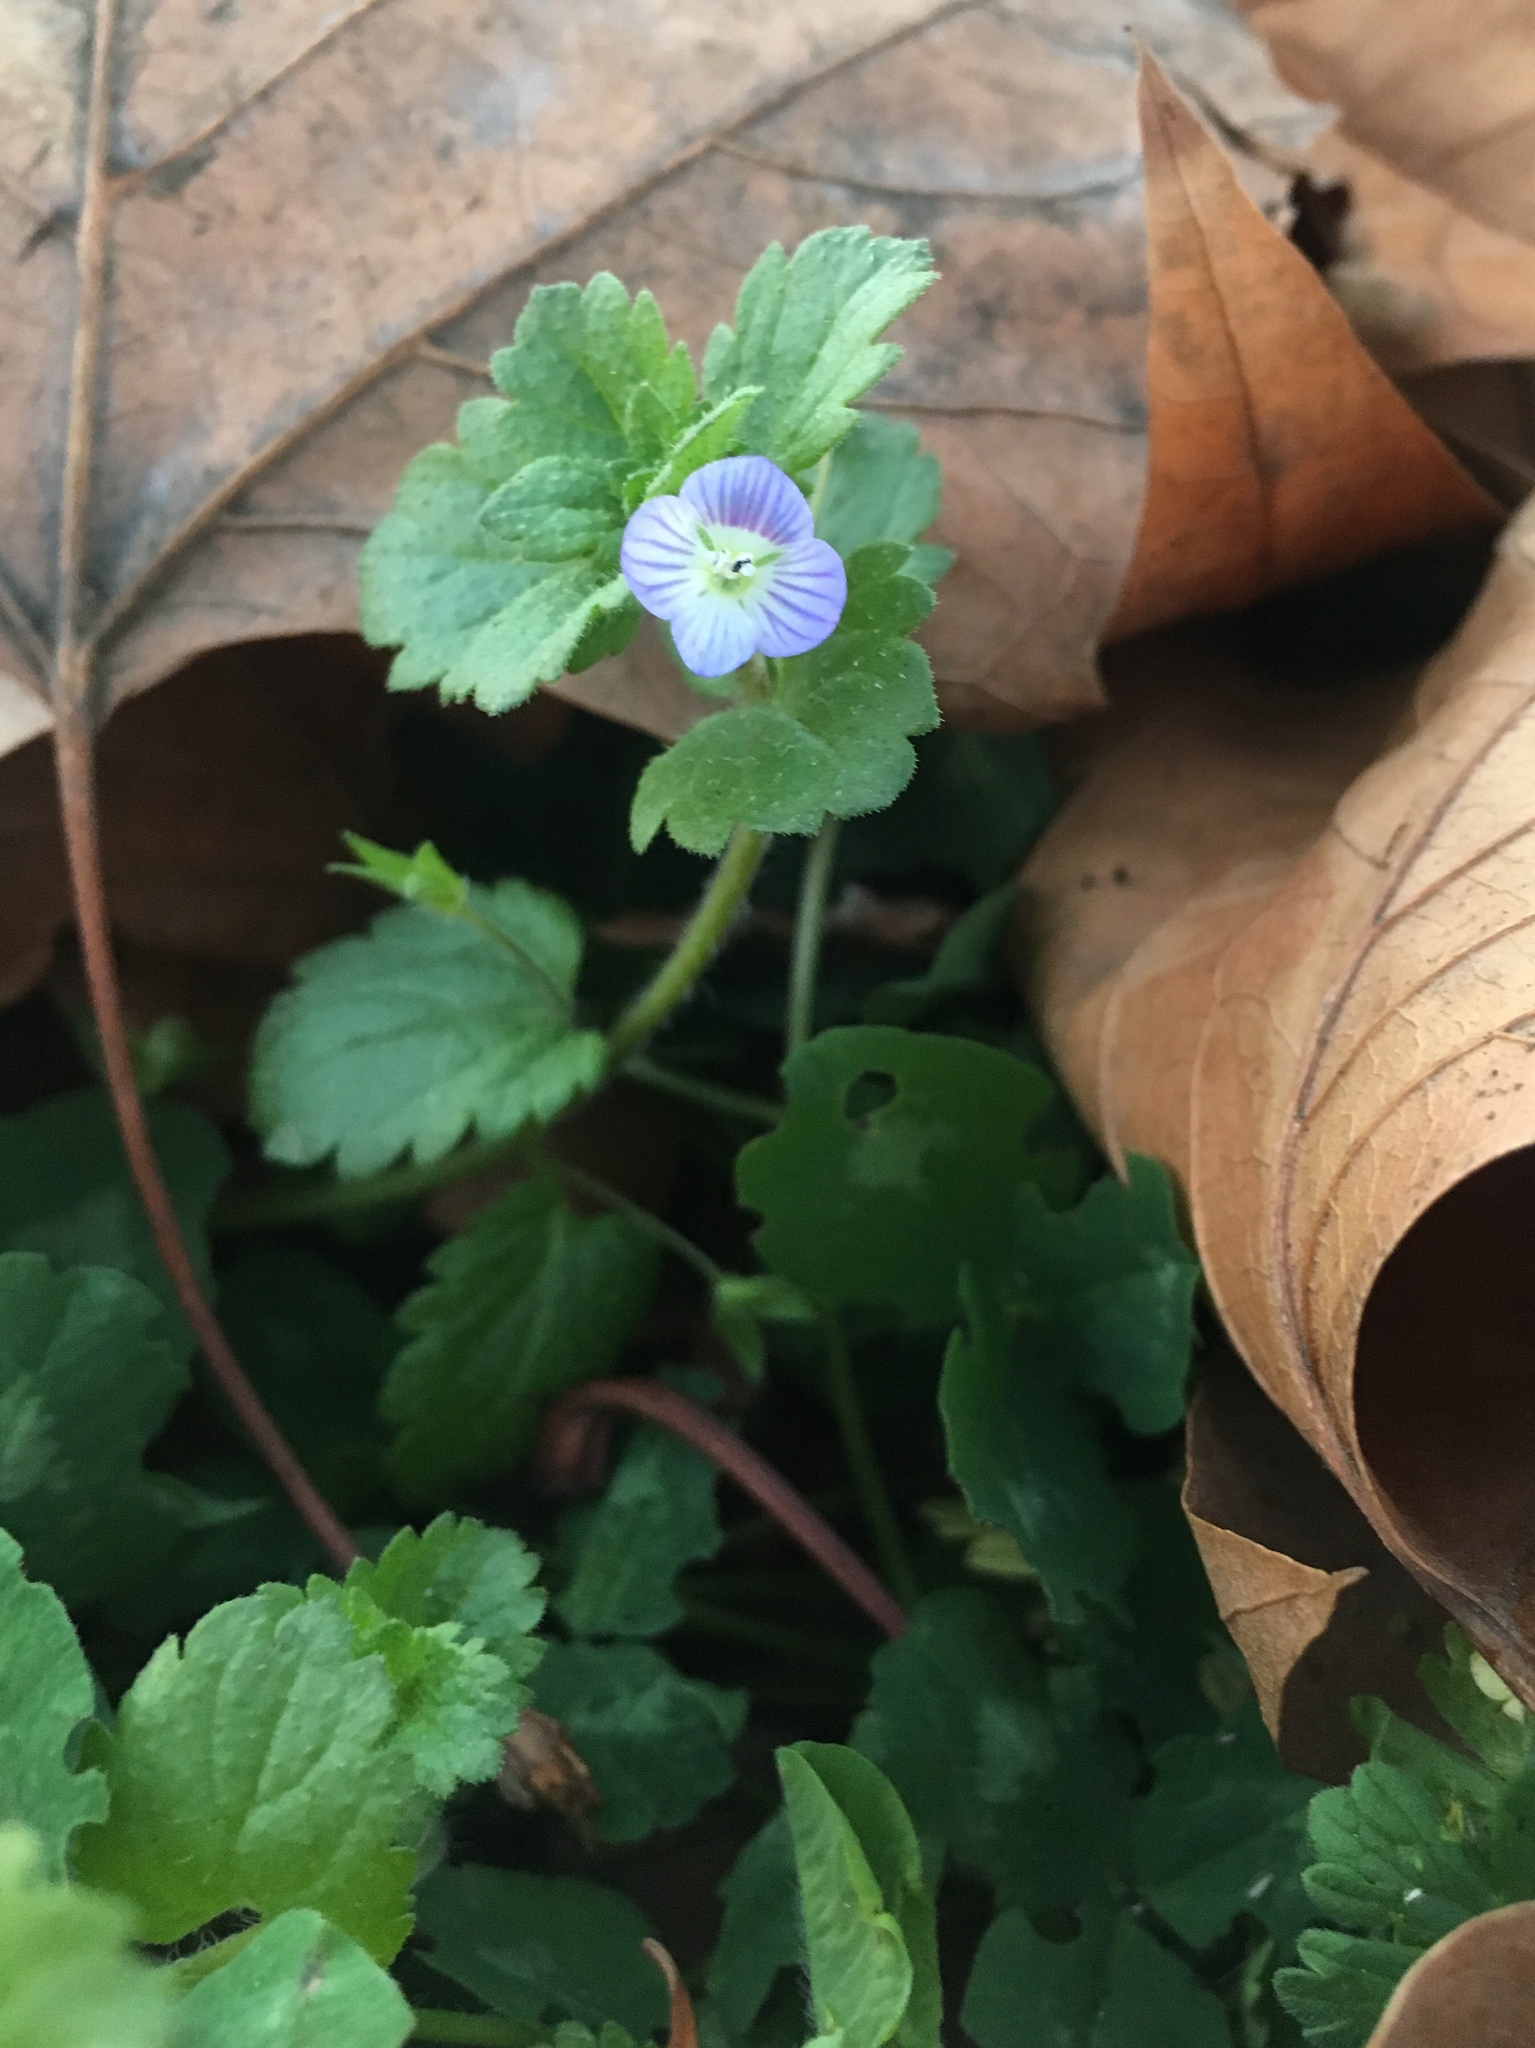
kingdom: Plantae
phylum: Tracheophyta
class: Magnoliopsida
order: Lamiales
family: Plantaginaceae
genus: Veronica
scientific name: Veronica persica
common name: Common field-speedwell
